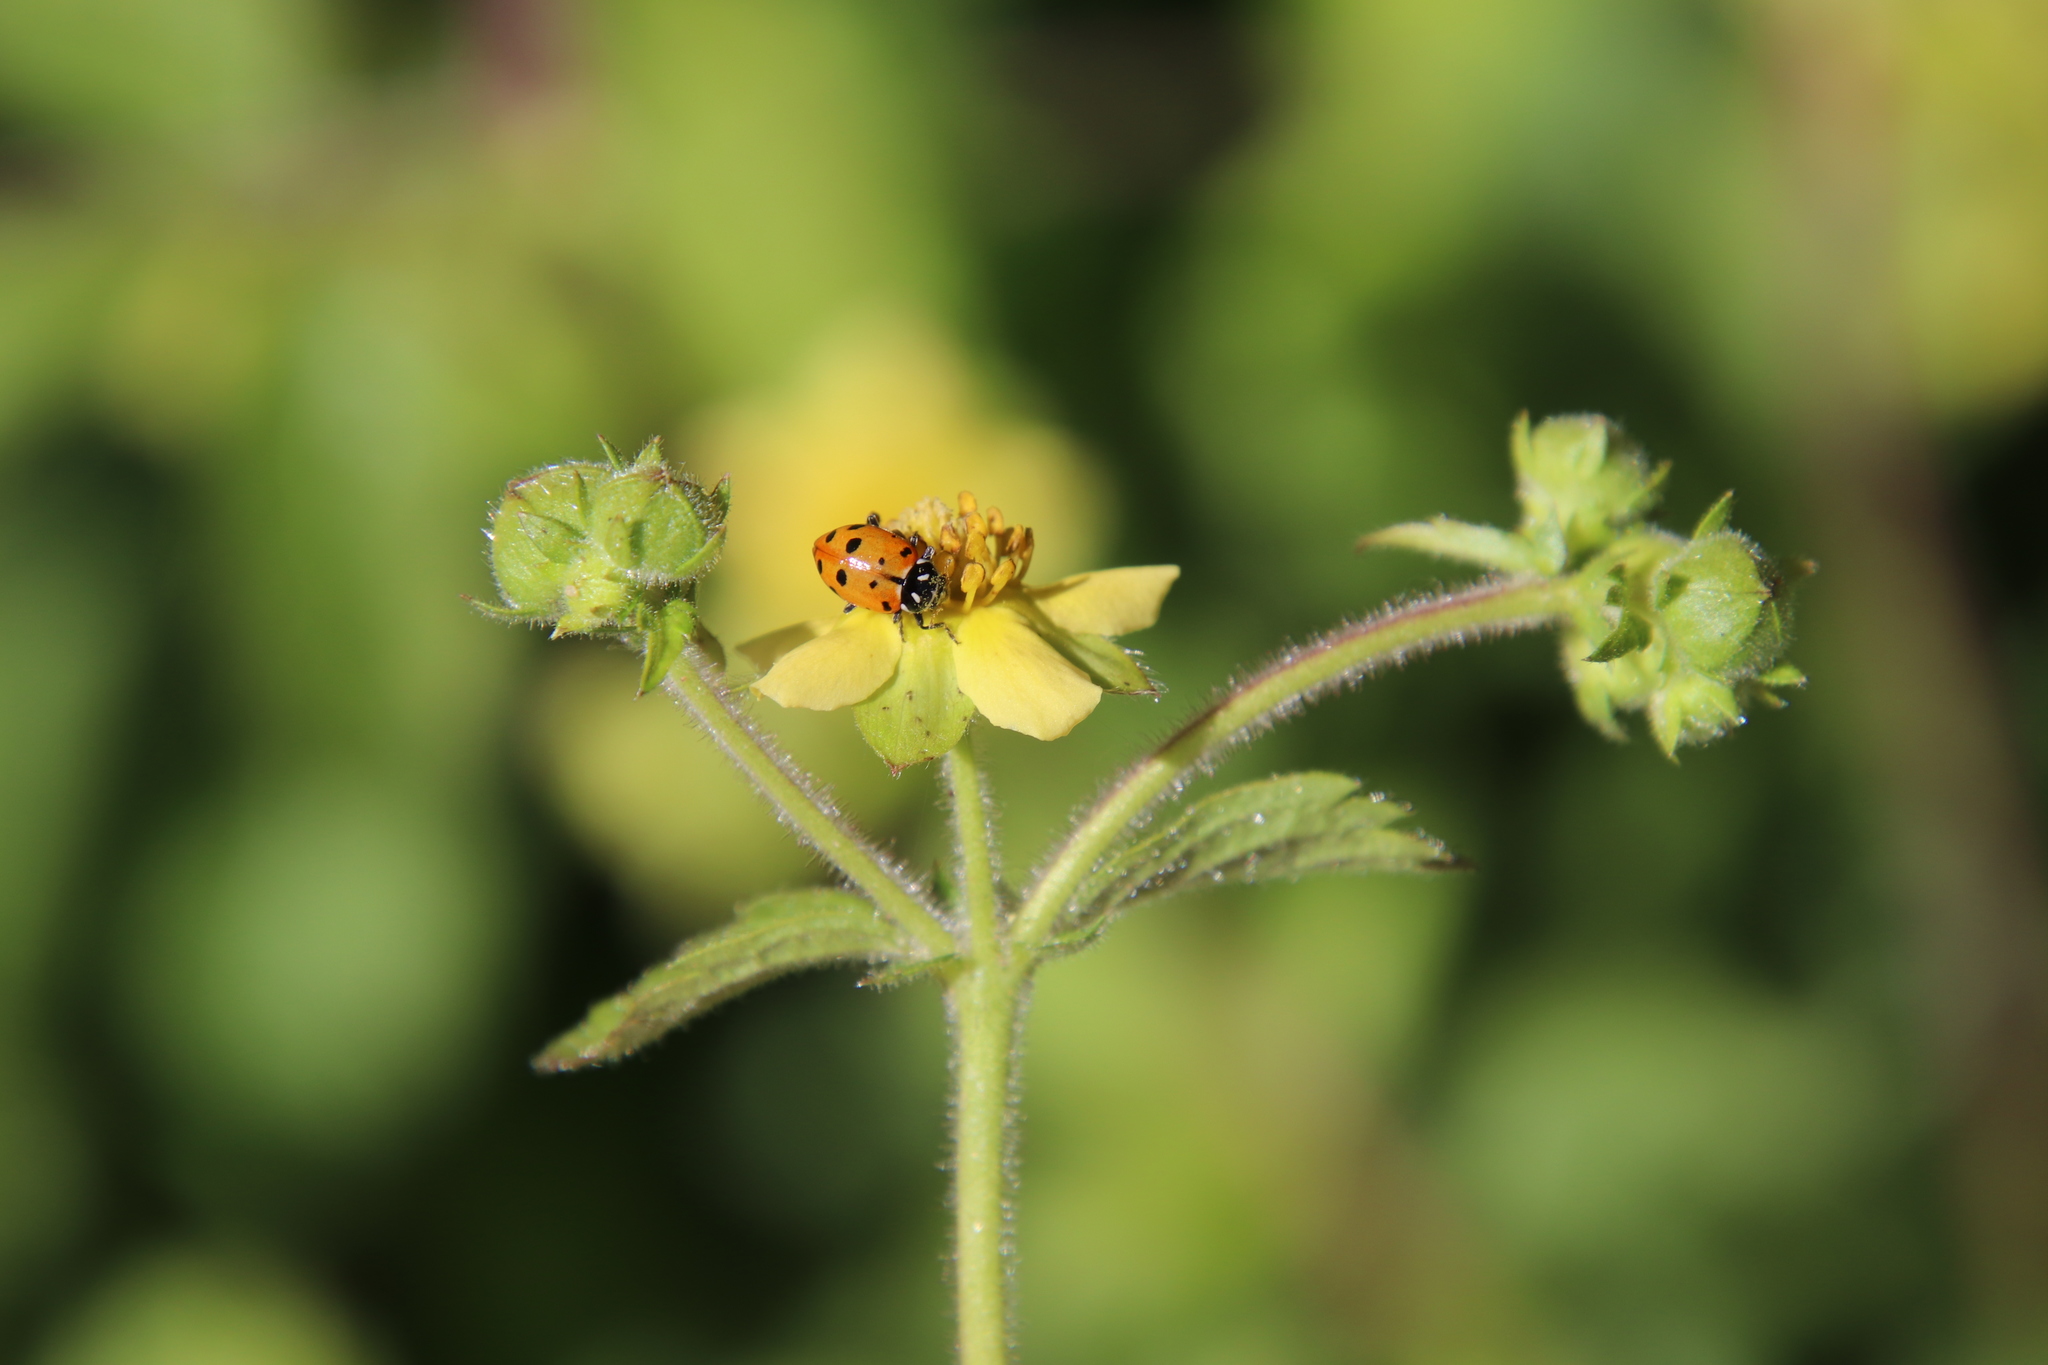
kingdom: Animalia
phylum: Arthropoda
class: Insecta
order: Coleoptera
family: Coccinellidae
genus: Hippodamia
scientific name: Hippodamia convergens
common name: Convergent lady beetle
